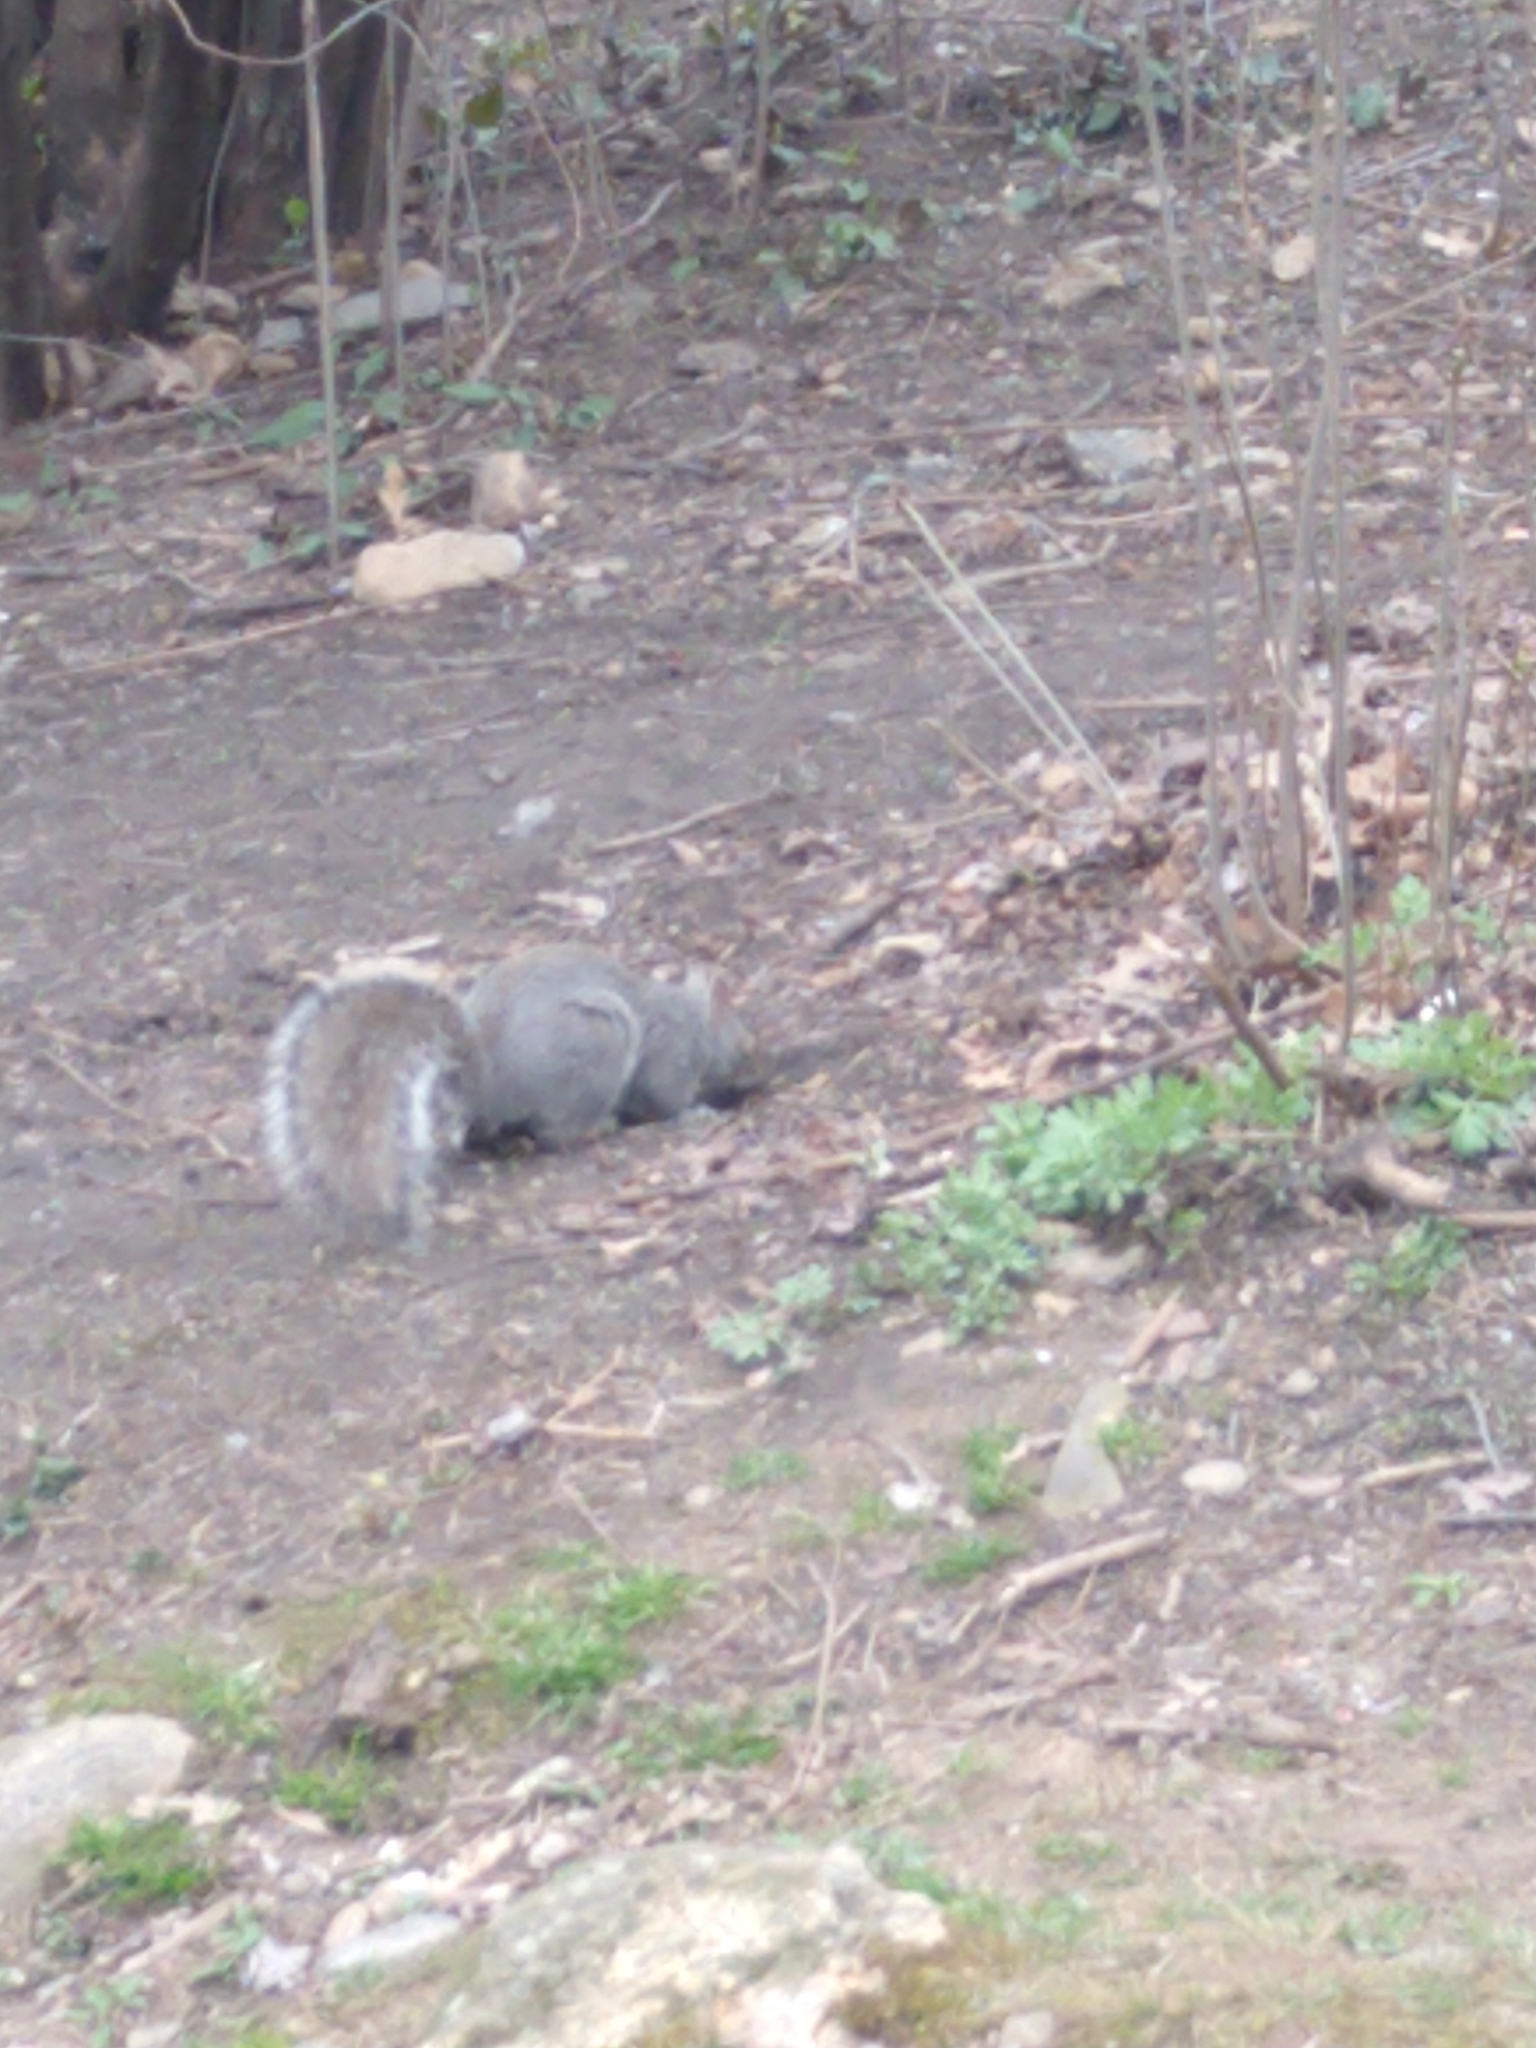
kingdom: Animalia
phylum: Chordata
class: Mammalia
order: Rodentia
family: Sciuridae
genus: Sciurus
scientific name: Sciurus carolinensis
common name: Eastern gray squirrel
